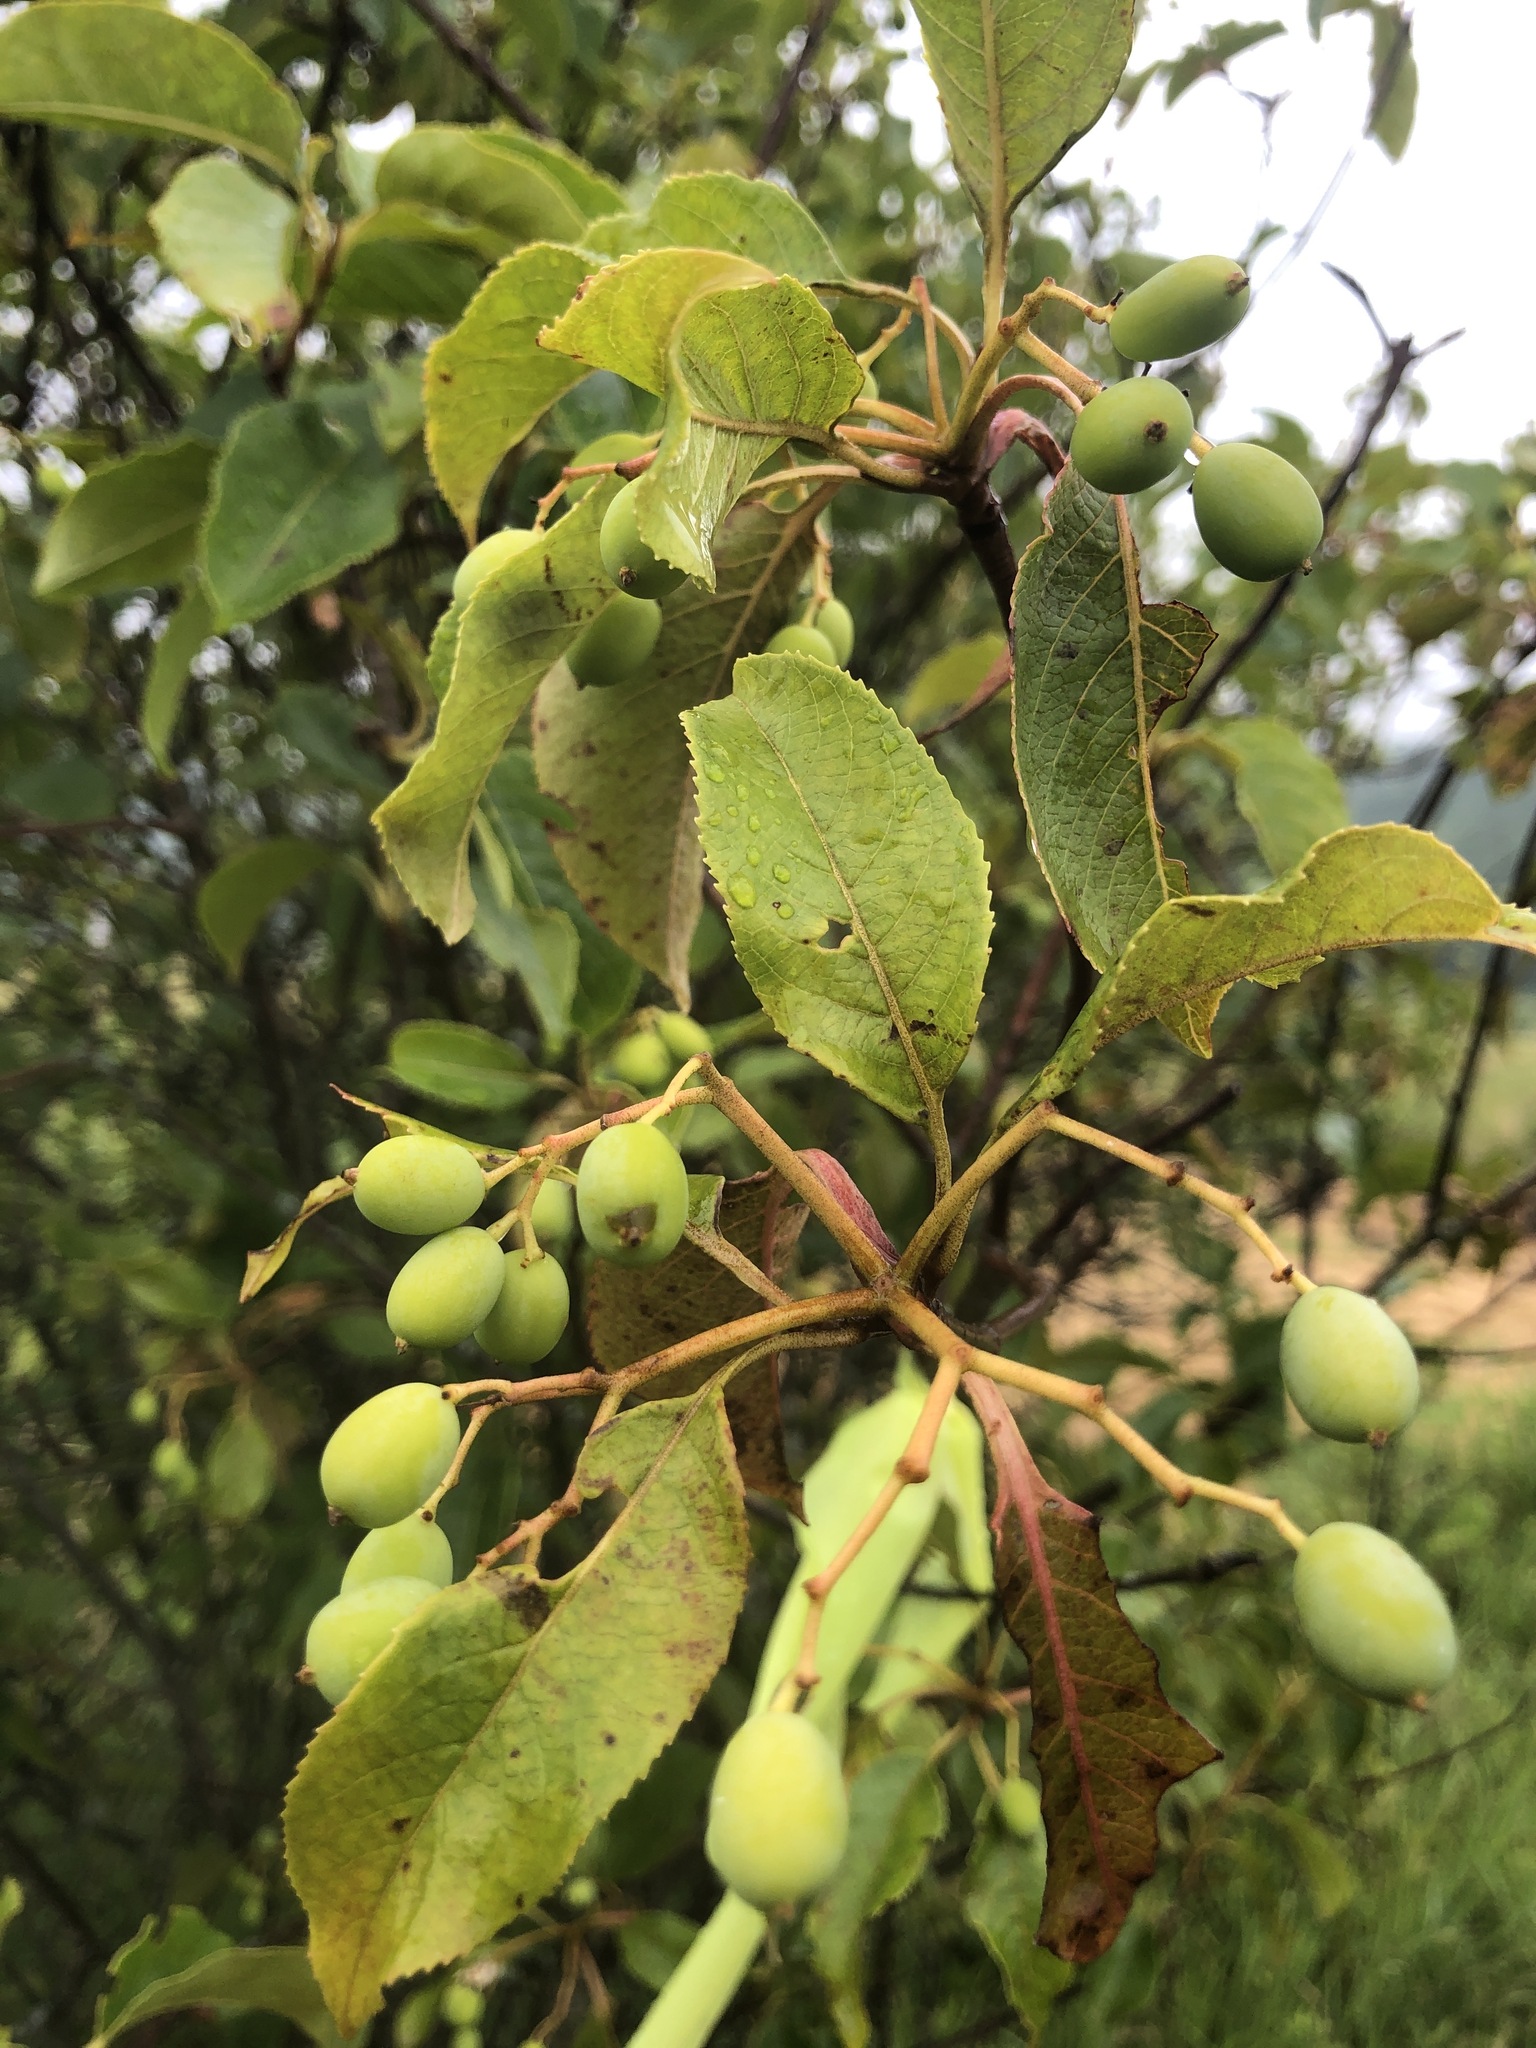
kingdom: Plantae
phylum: Tracheophyta
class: Magnoliopsida
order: Dipsacales
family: Viburnaceae
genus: Viburnum
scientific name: Viburnum lentago
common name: Black haw
